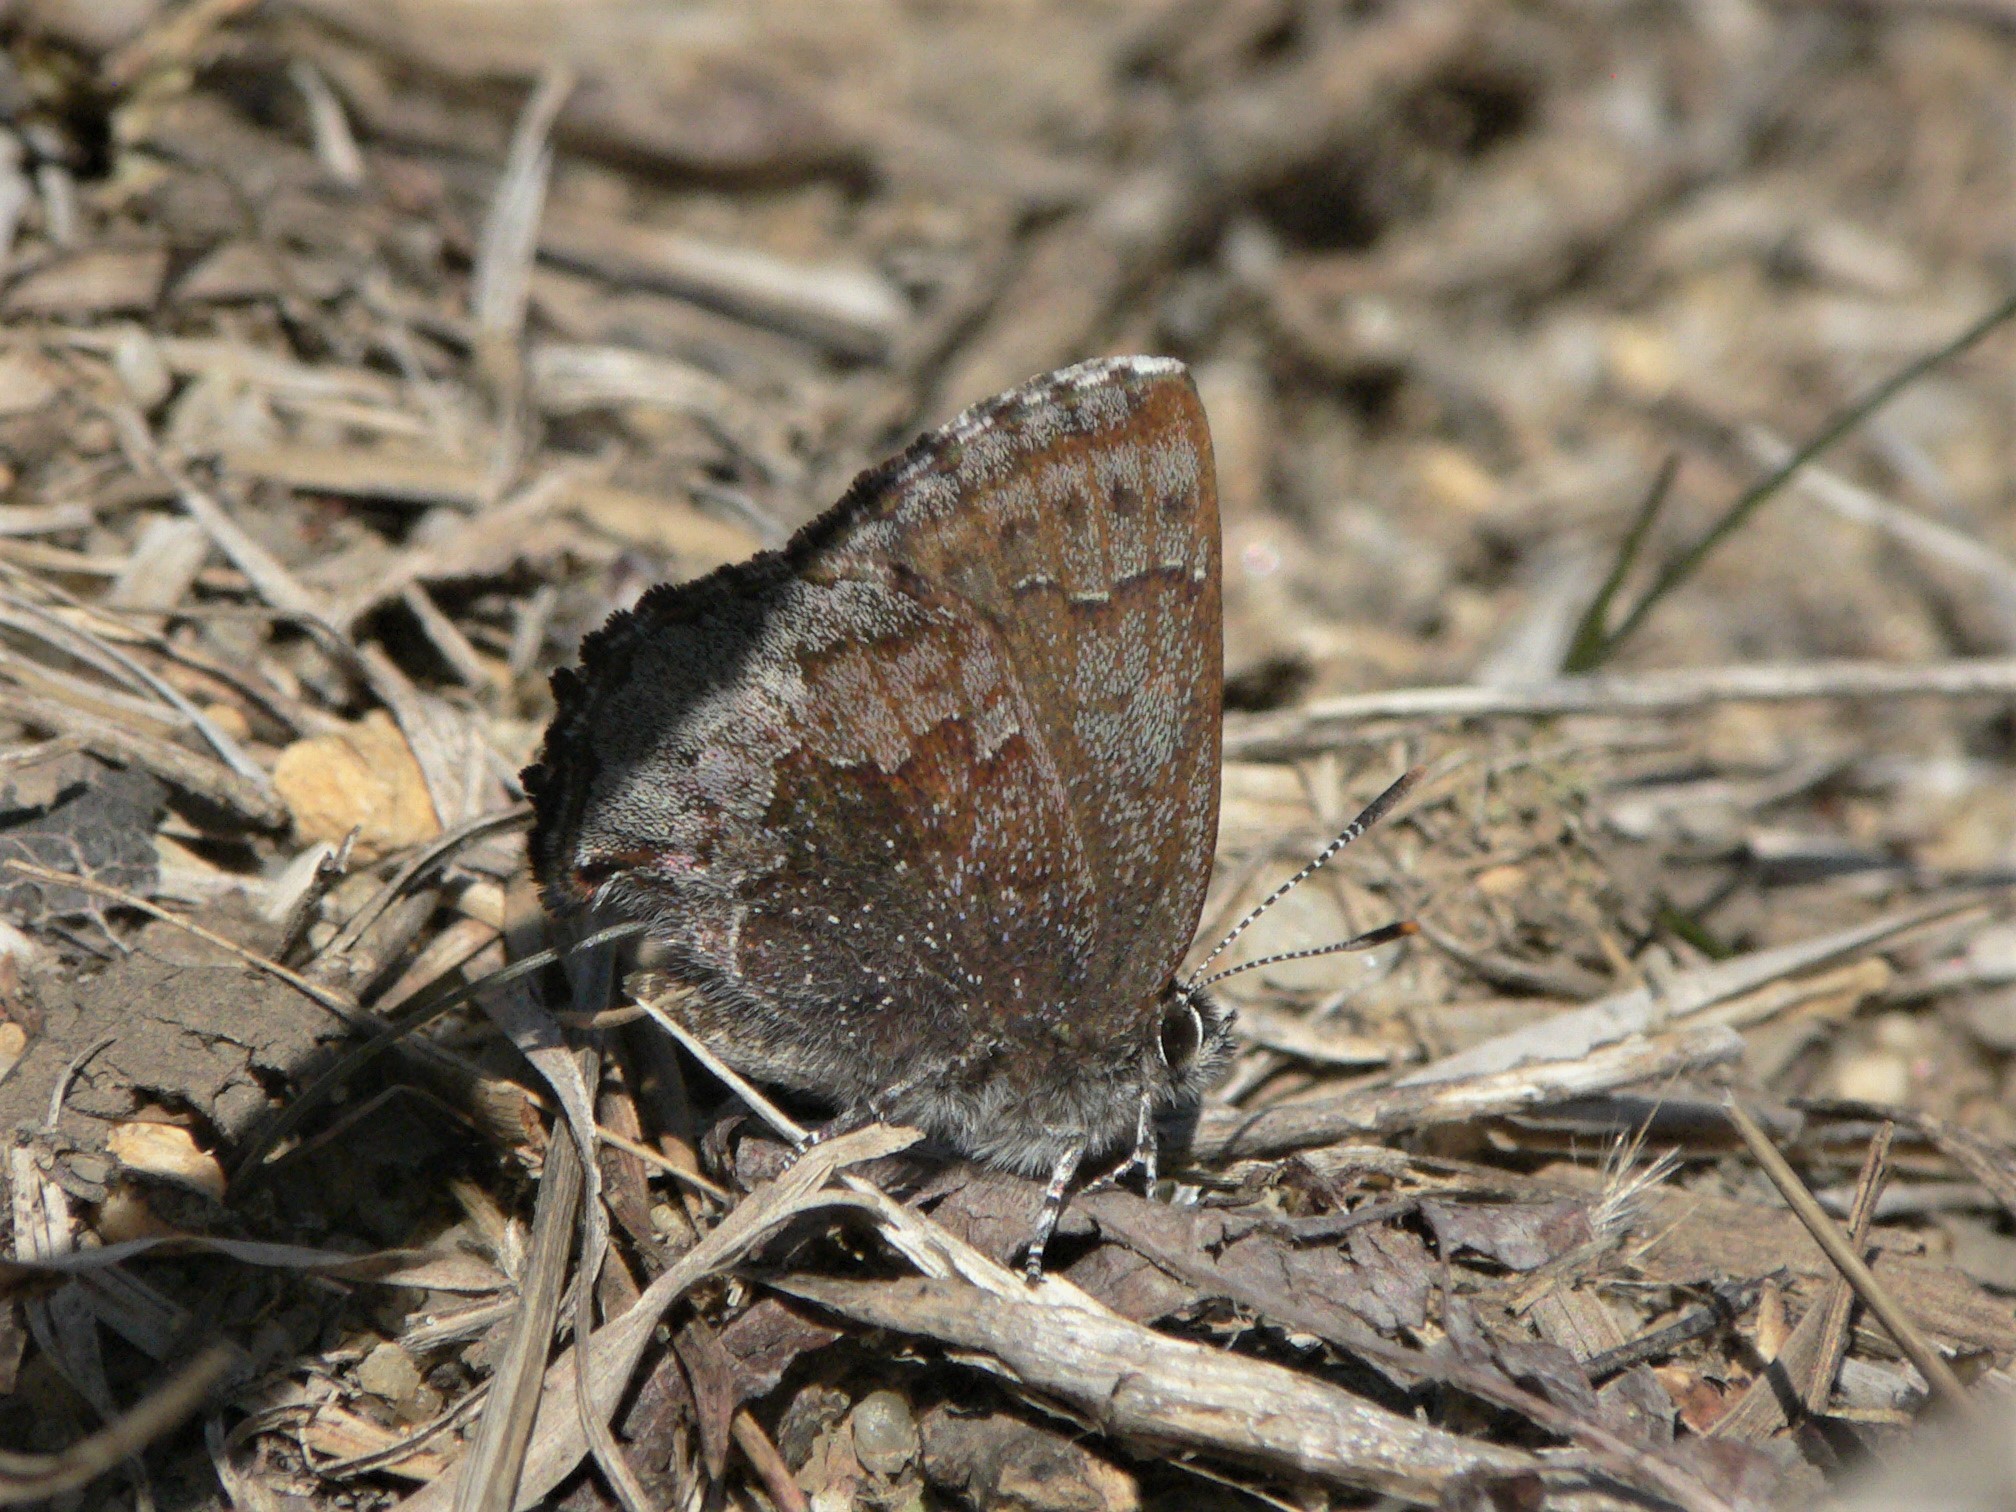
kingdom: Animalia
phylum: Arthropoda
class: Insecta
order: Lepidoptera
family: Lycaenidae
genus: Callophrys
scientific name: Callophrys polios
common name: Hoary elfin
